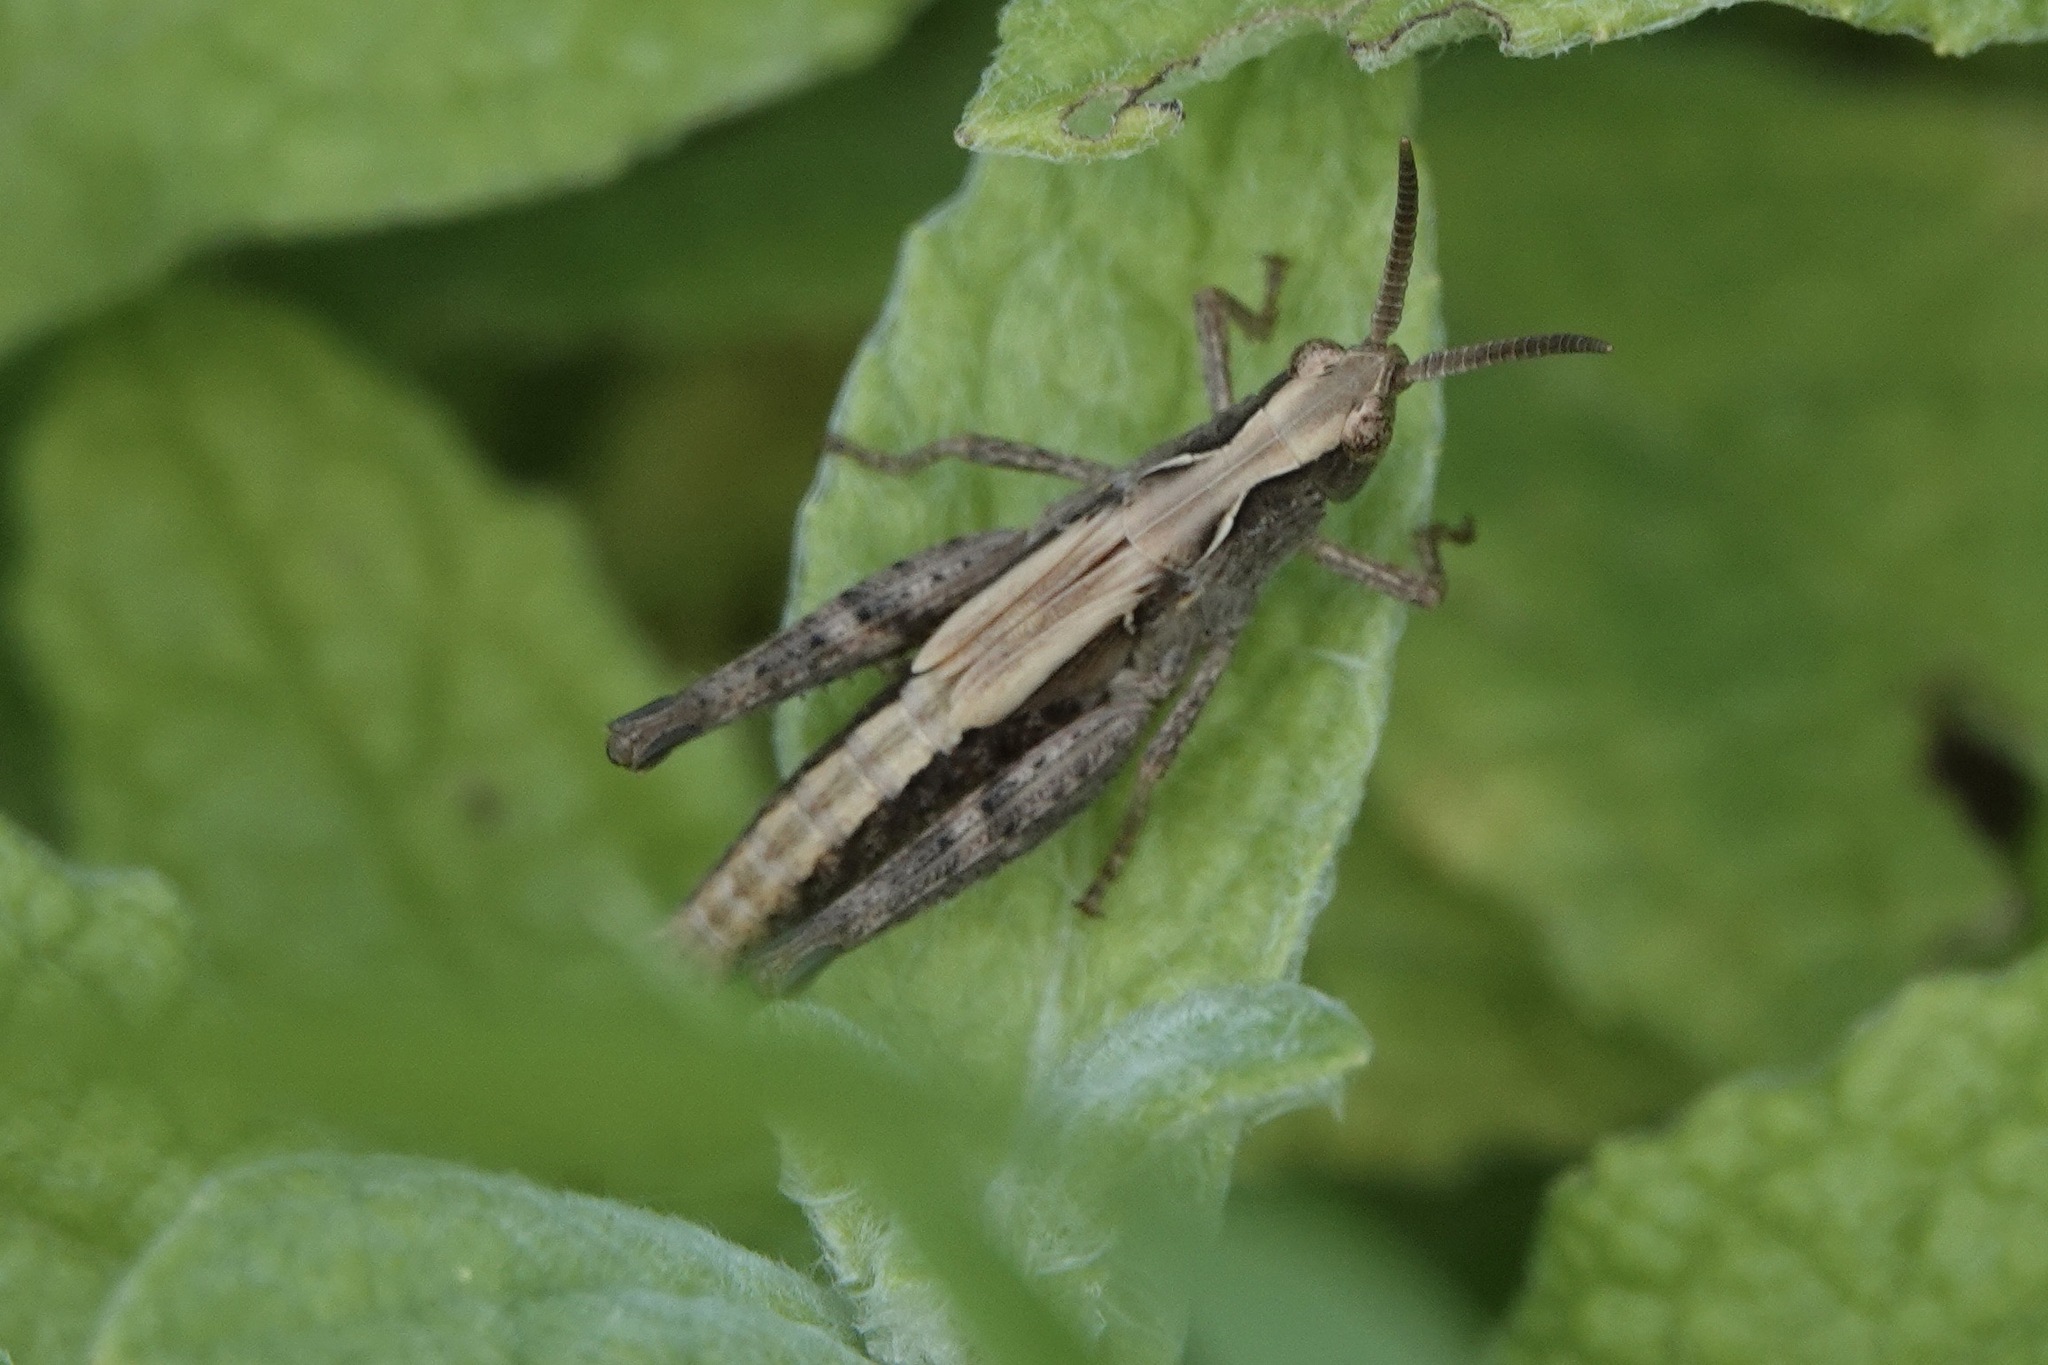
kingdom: Animalia
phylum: Arthropoda
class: Insecta
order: Orthoptera
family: Acrididae
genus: Chorthippus
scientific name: Chorthippus brunneus
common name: Field grasshopper
